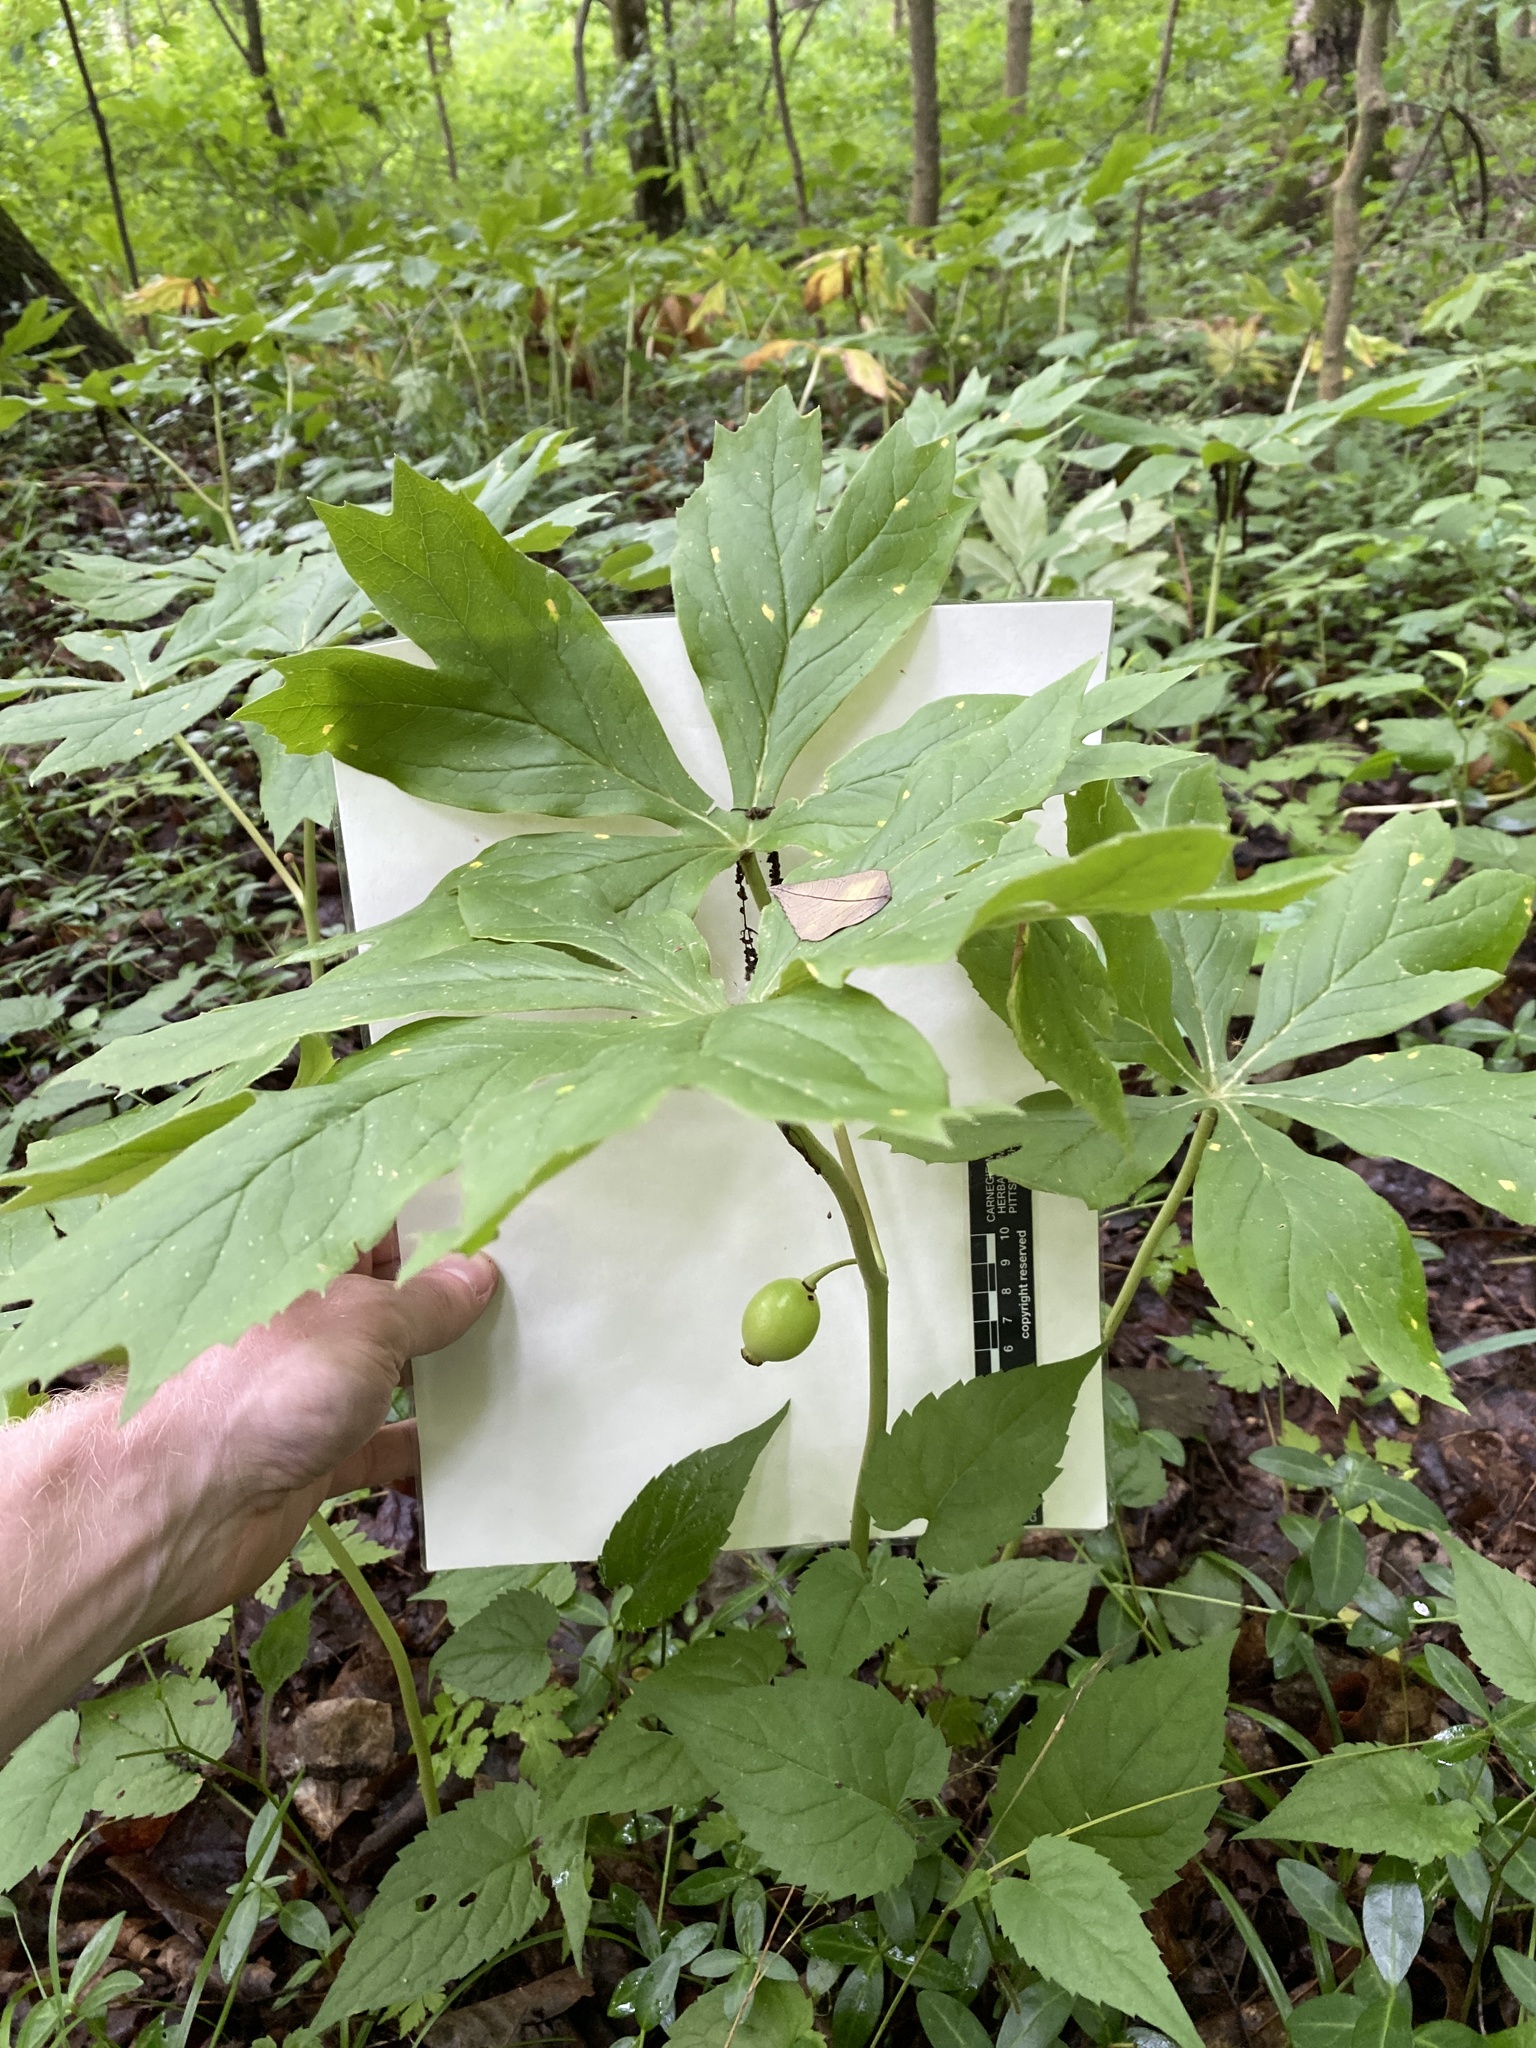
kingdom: Plantae
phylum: Tracheophyta
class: Magnoliopsida
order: Ranunculales
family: Berberidaceae
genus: Podophyllum
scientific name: Podophyllum peltatum
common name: Wild mandrake
